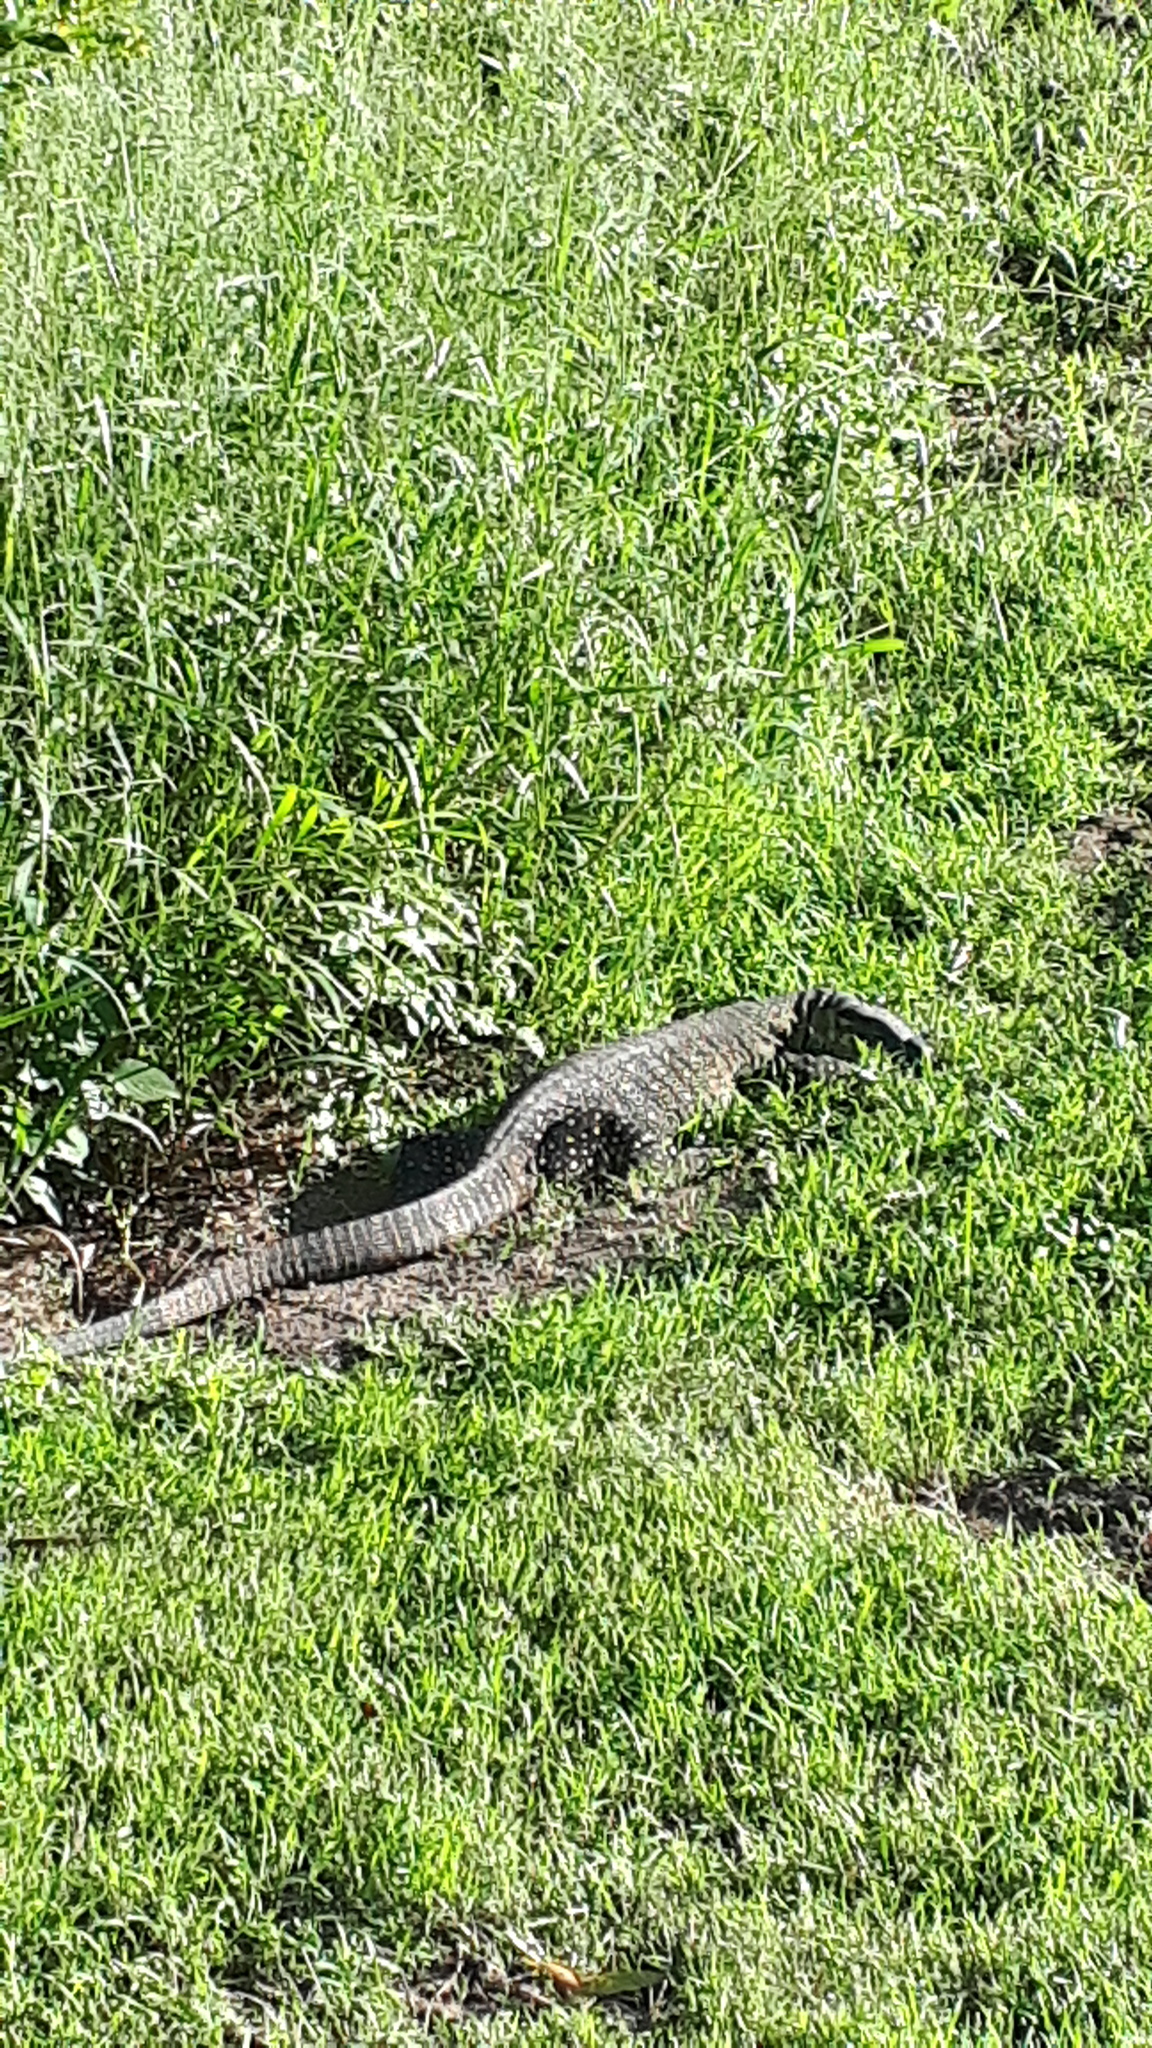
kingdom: Animalia
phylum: Chordata
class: Squamata
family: Varanidae
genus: Varanus
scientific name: Varanus varius
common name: Lace monitor
